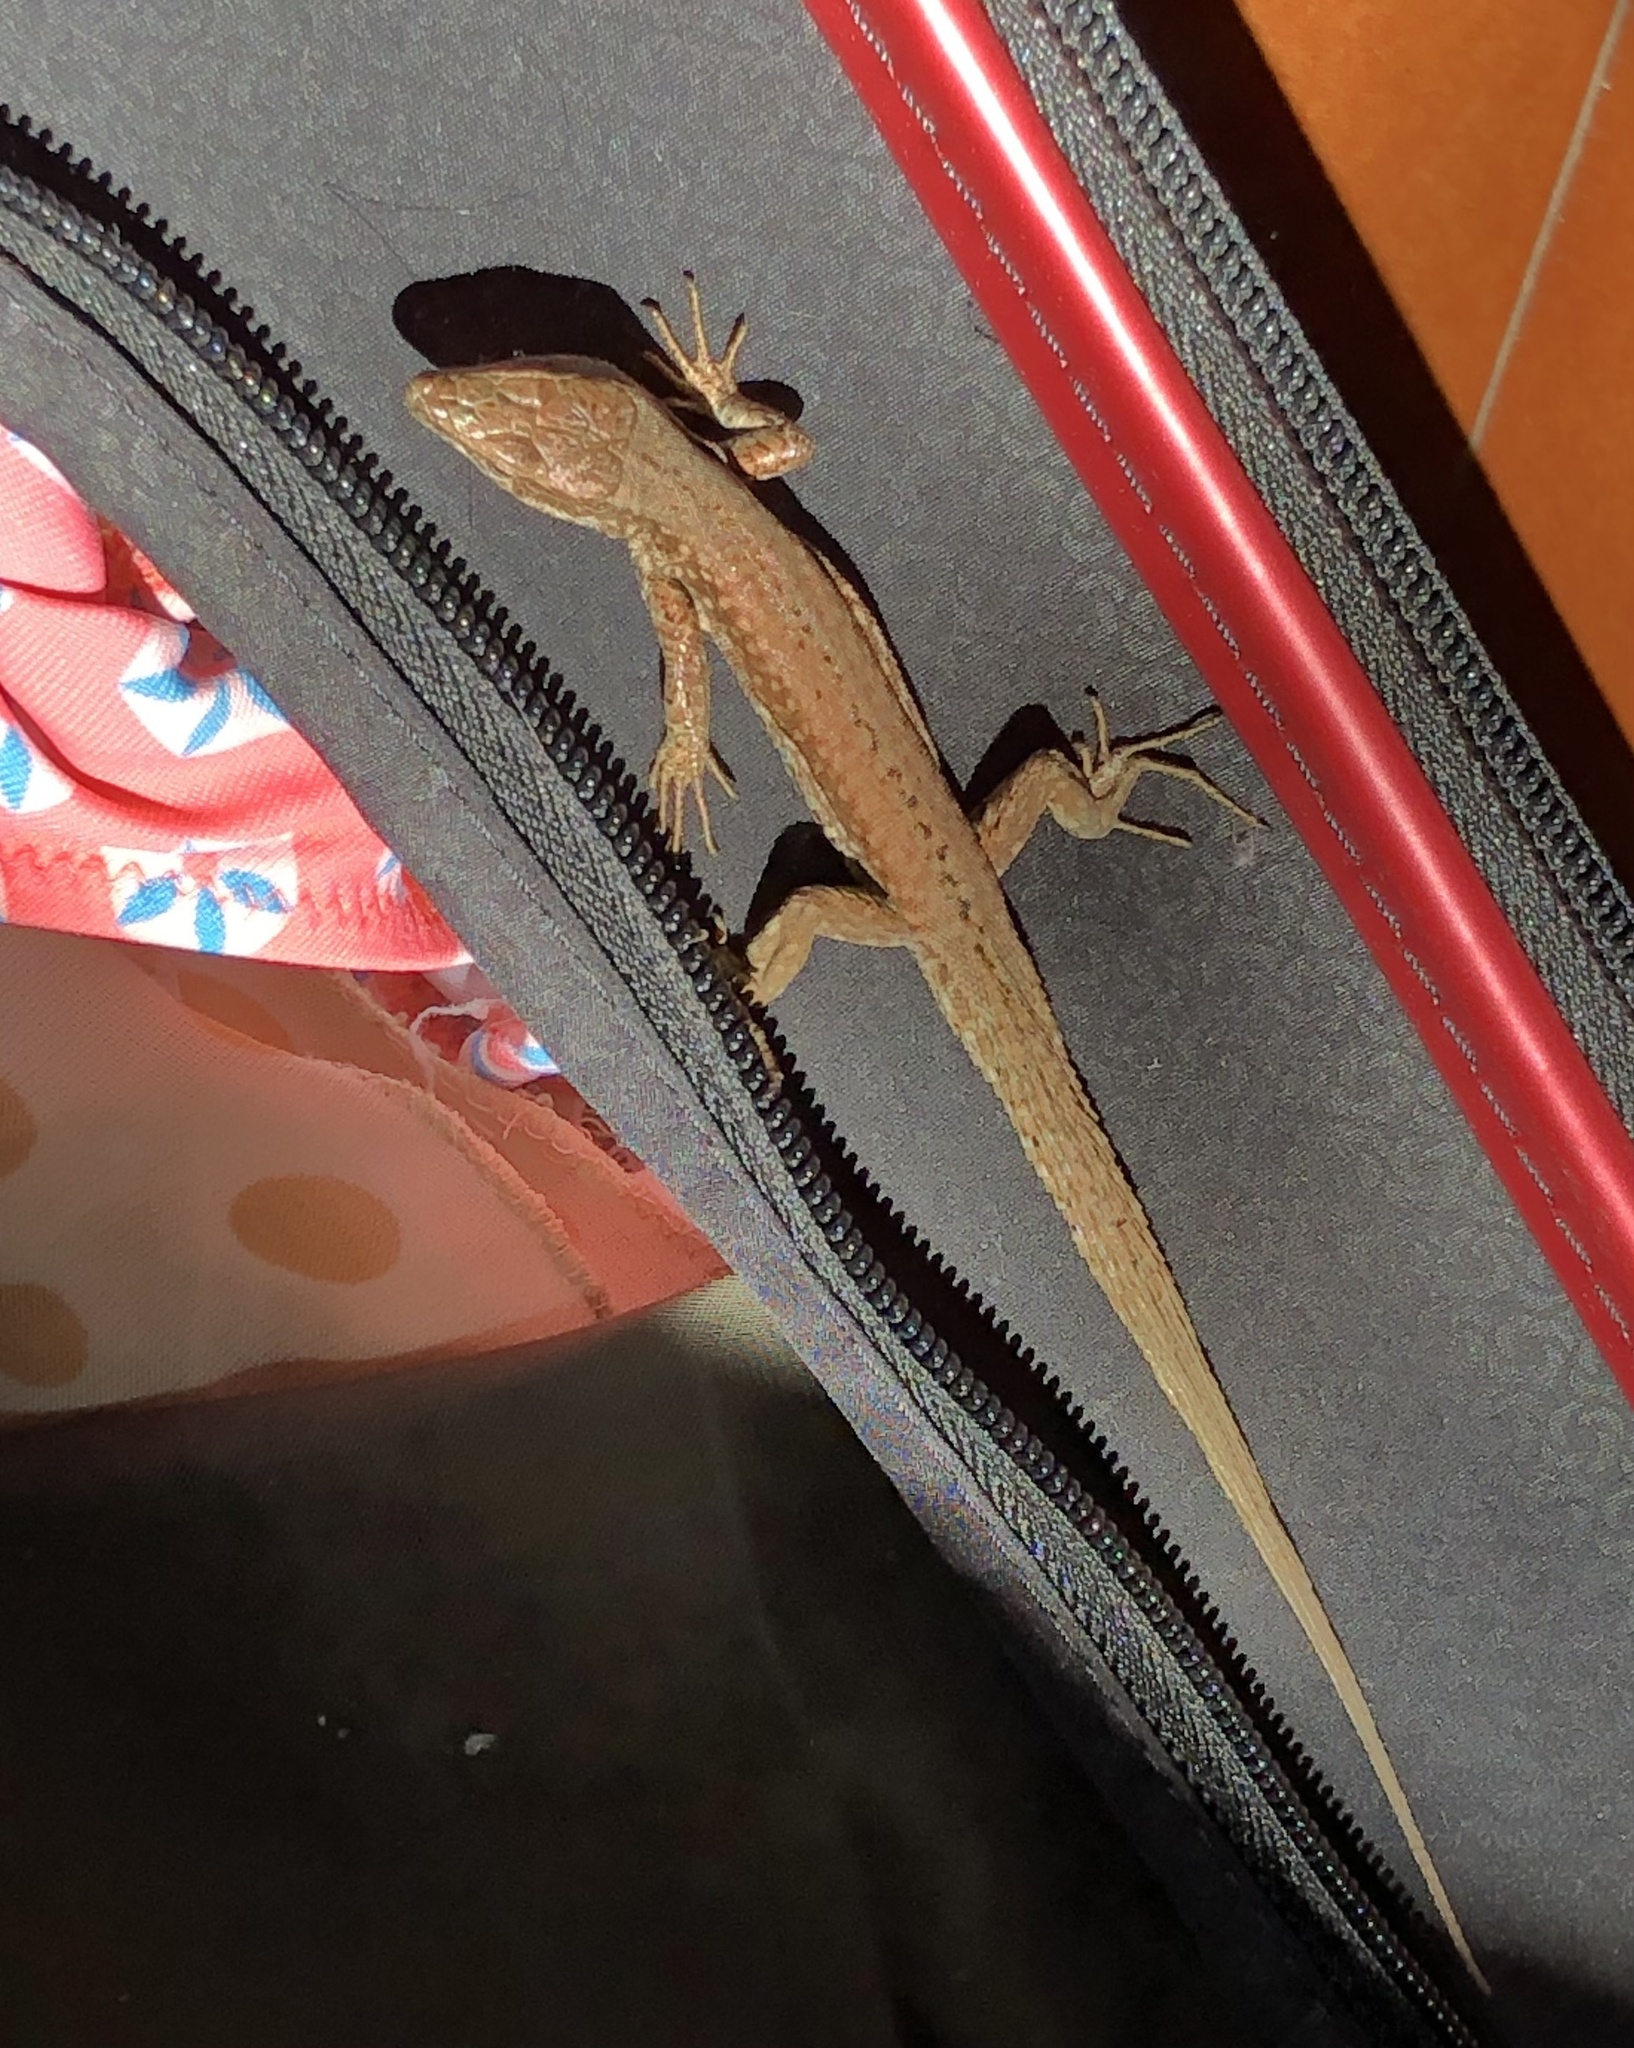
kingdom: Animalia
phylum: Chordata
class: Squamata
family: Lacertidae
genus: Podarcis
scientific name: Podarcis liolepis
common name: Catalonian wall lizard
